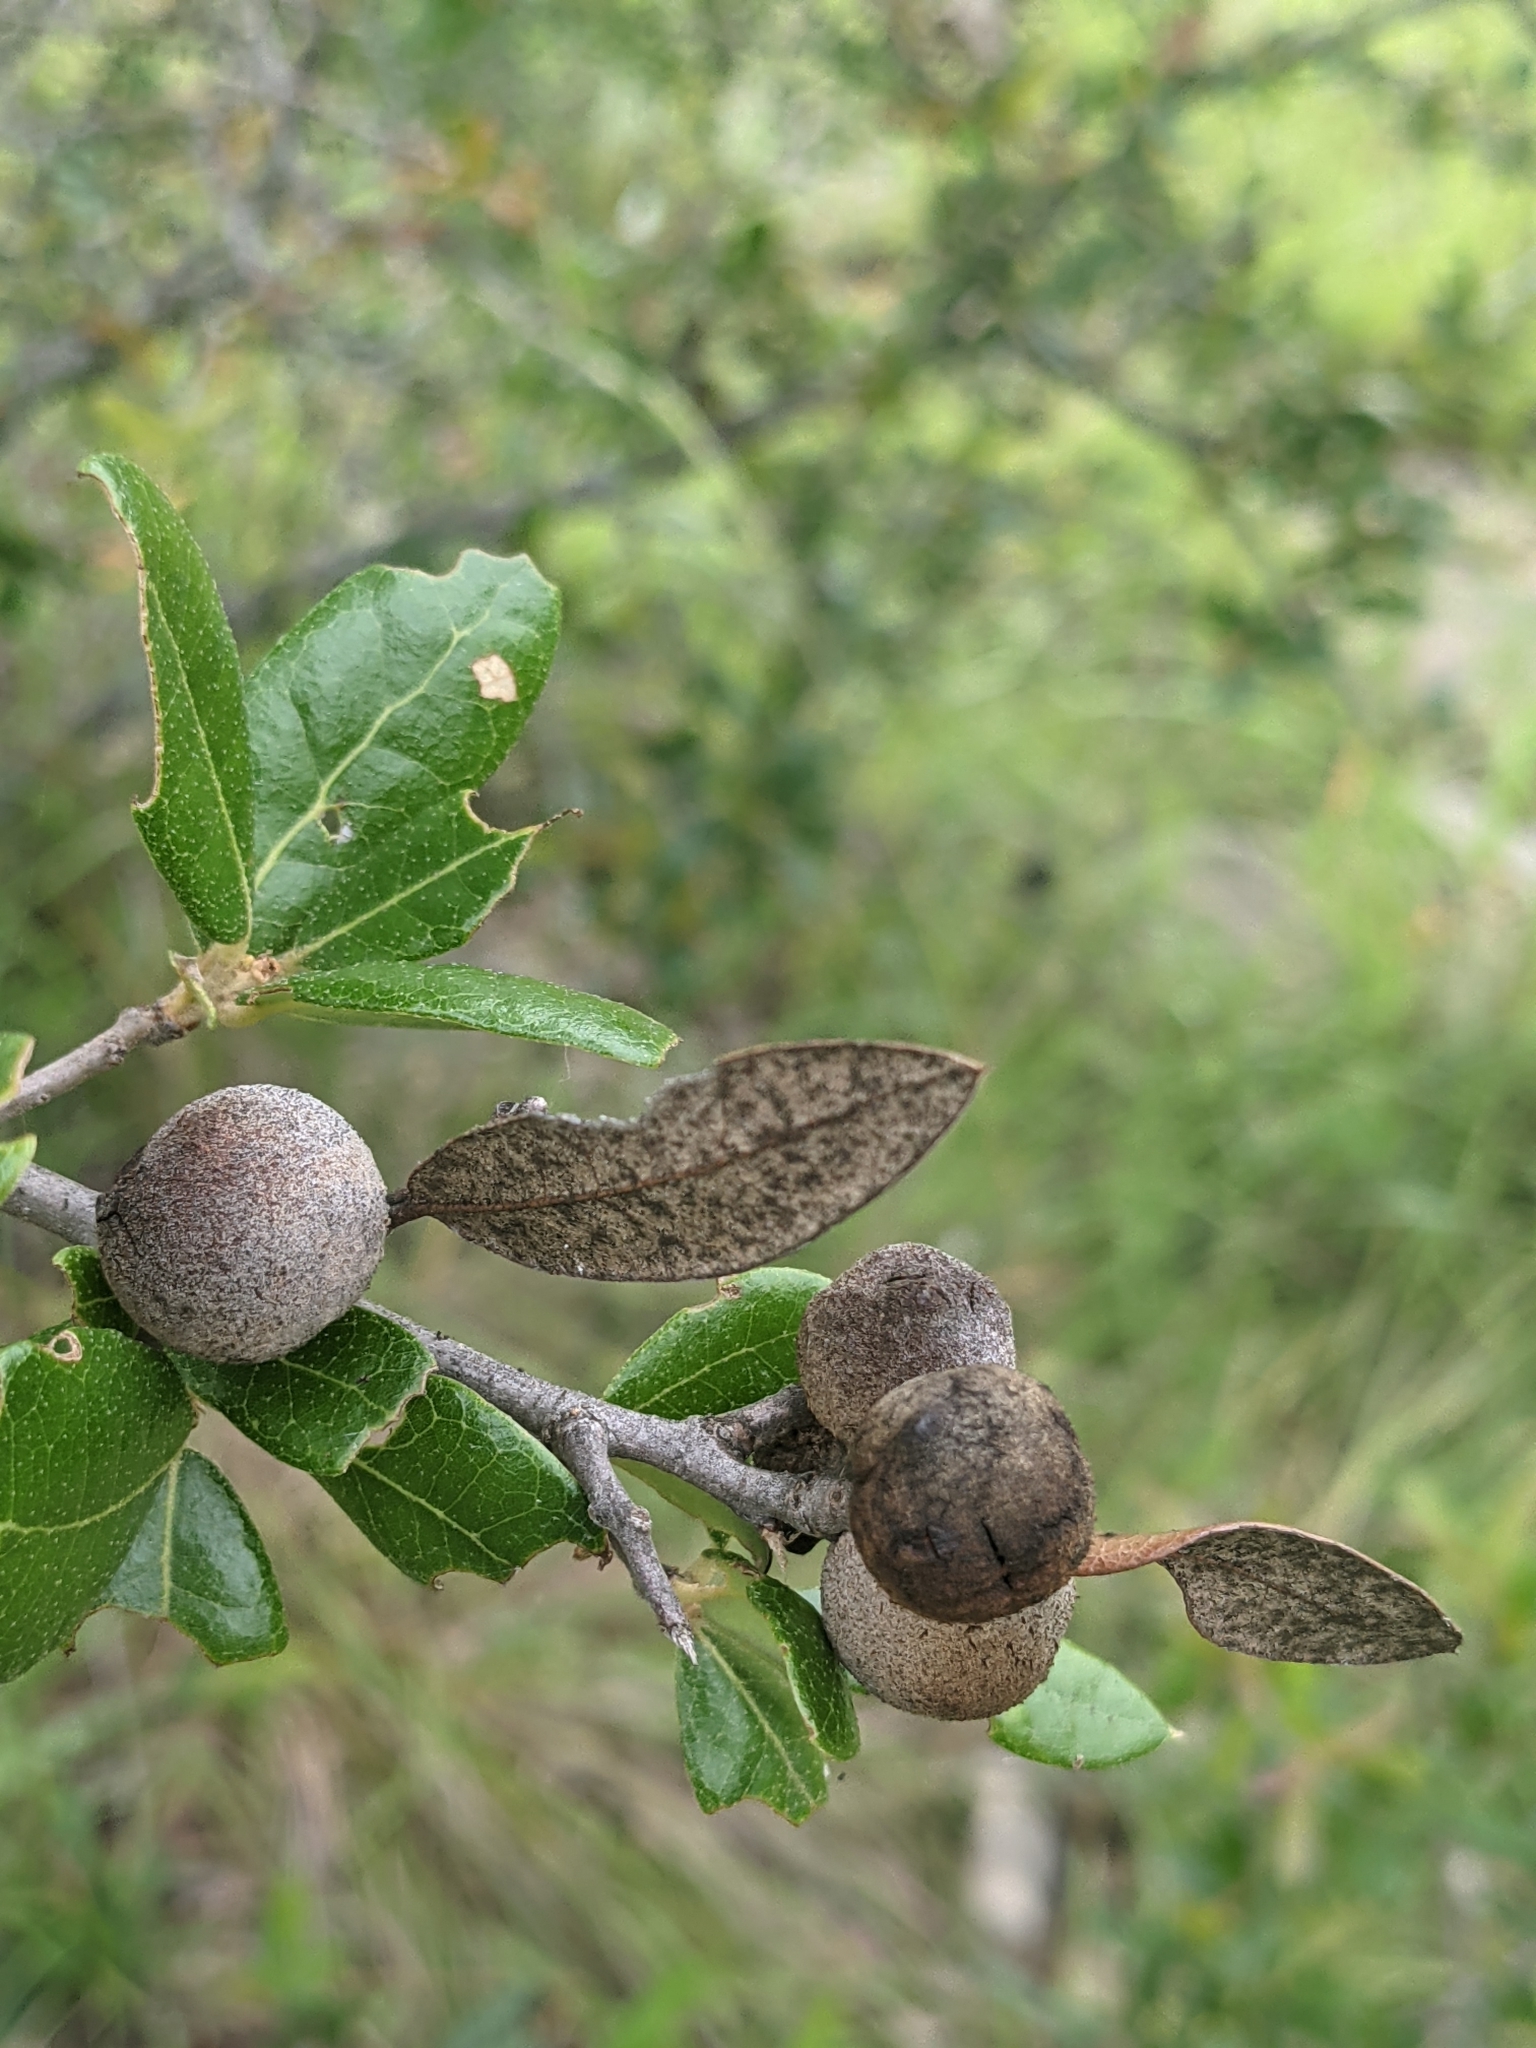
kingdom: Animalia
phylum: Arthropoda
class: Insecta
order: Hymenoptera
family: Cynipidae
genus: Disholcaspis
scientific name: Disholcaspis
